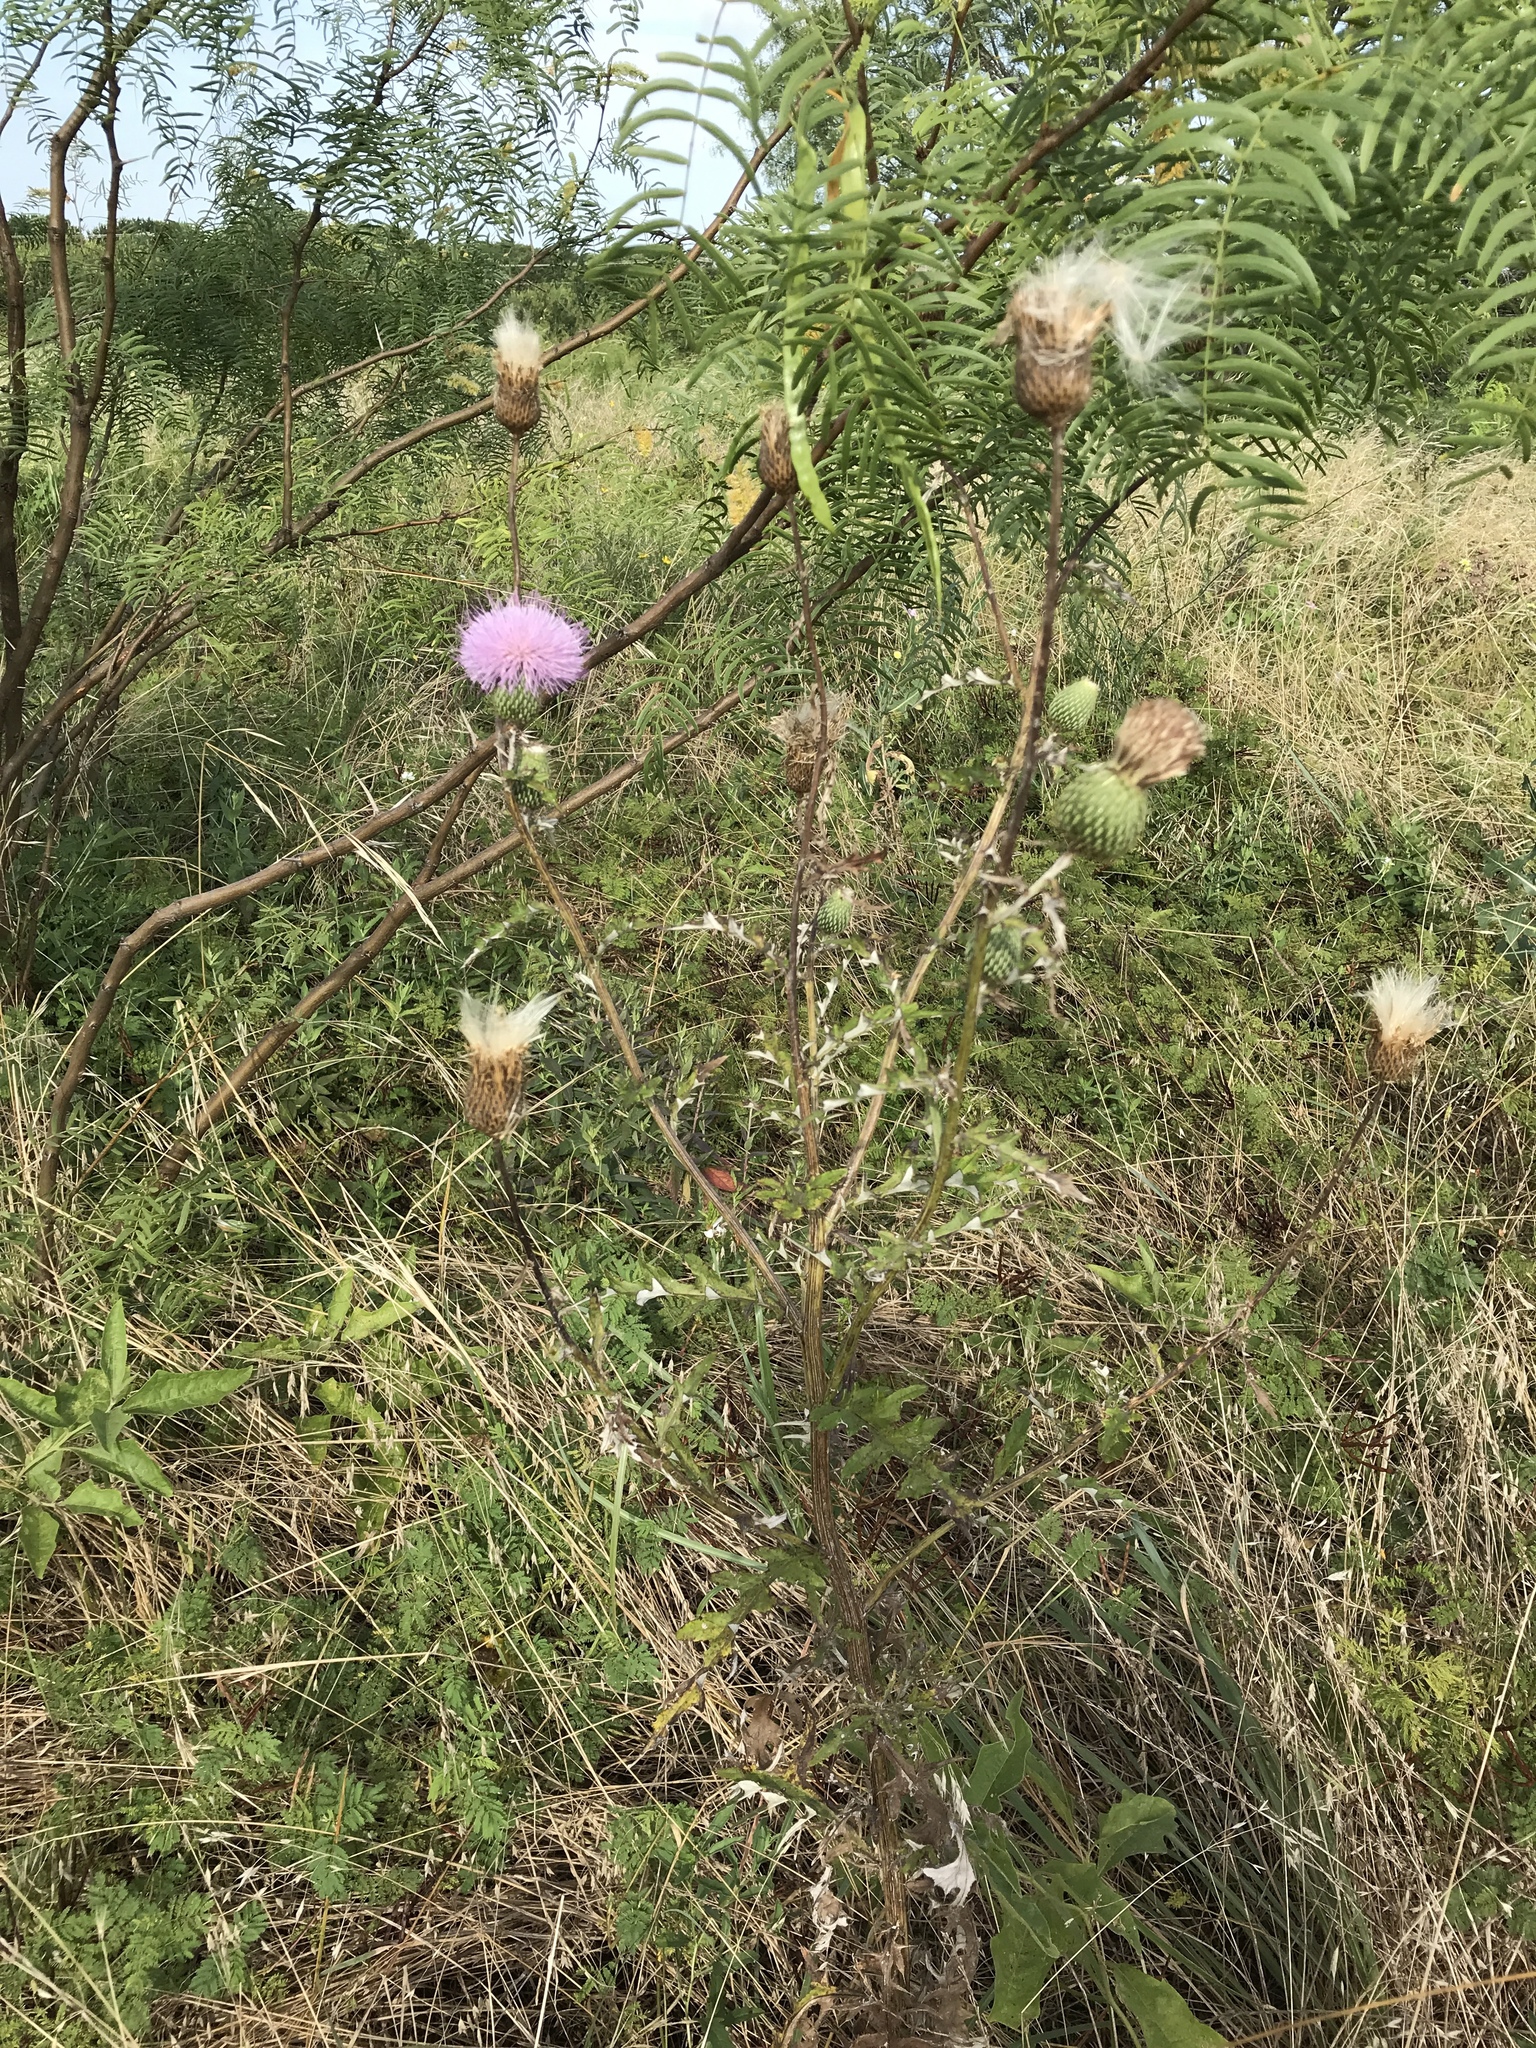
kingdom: Plantae
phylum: Tracheophyta
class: Magnoliopsida
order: Asterales
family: Asteraceae
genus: Cirsium
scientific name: Cirsium texanum
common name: Texas purple thistle
